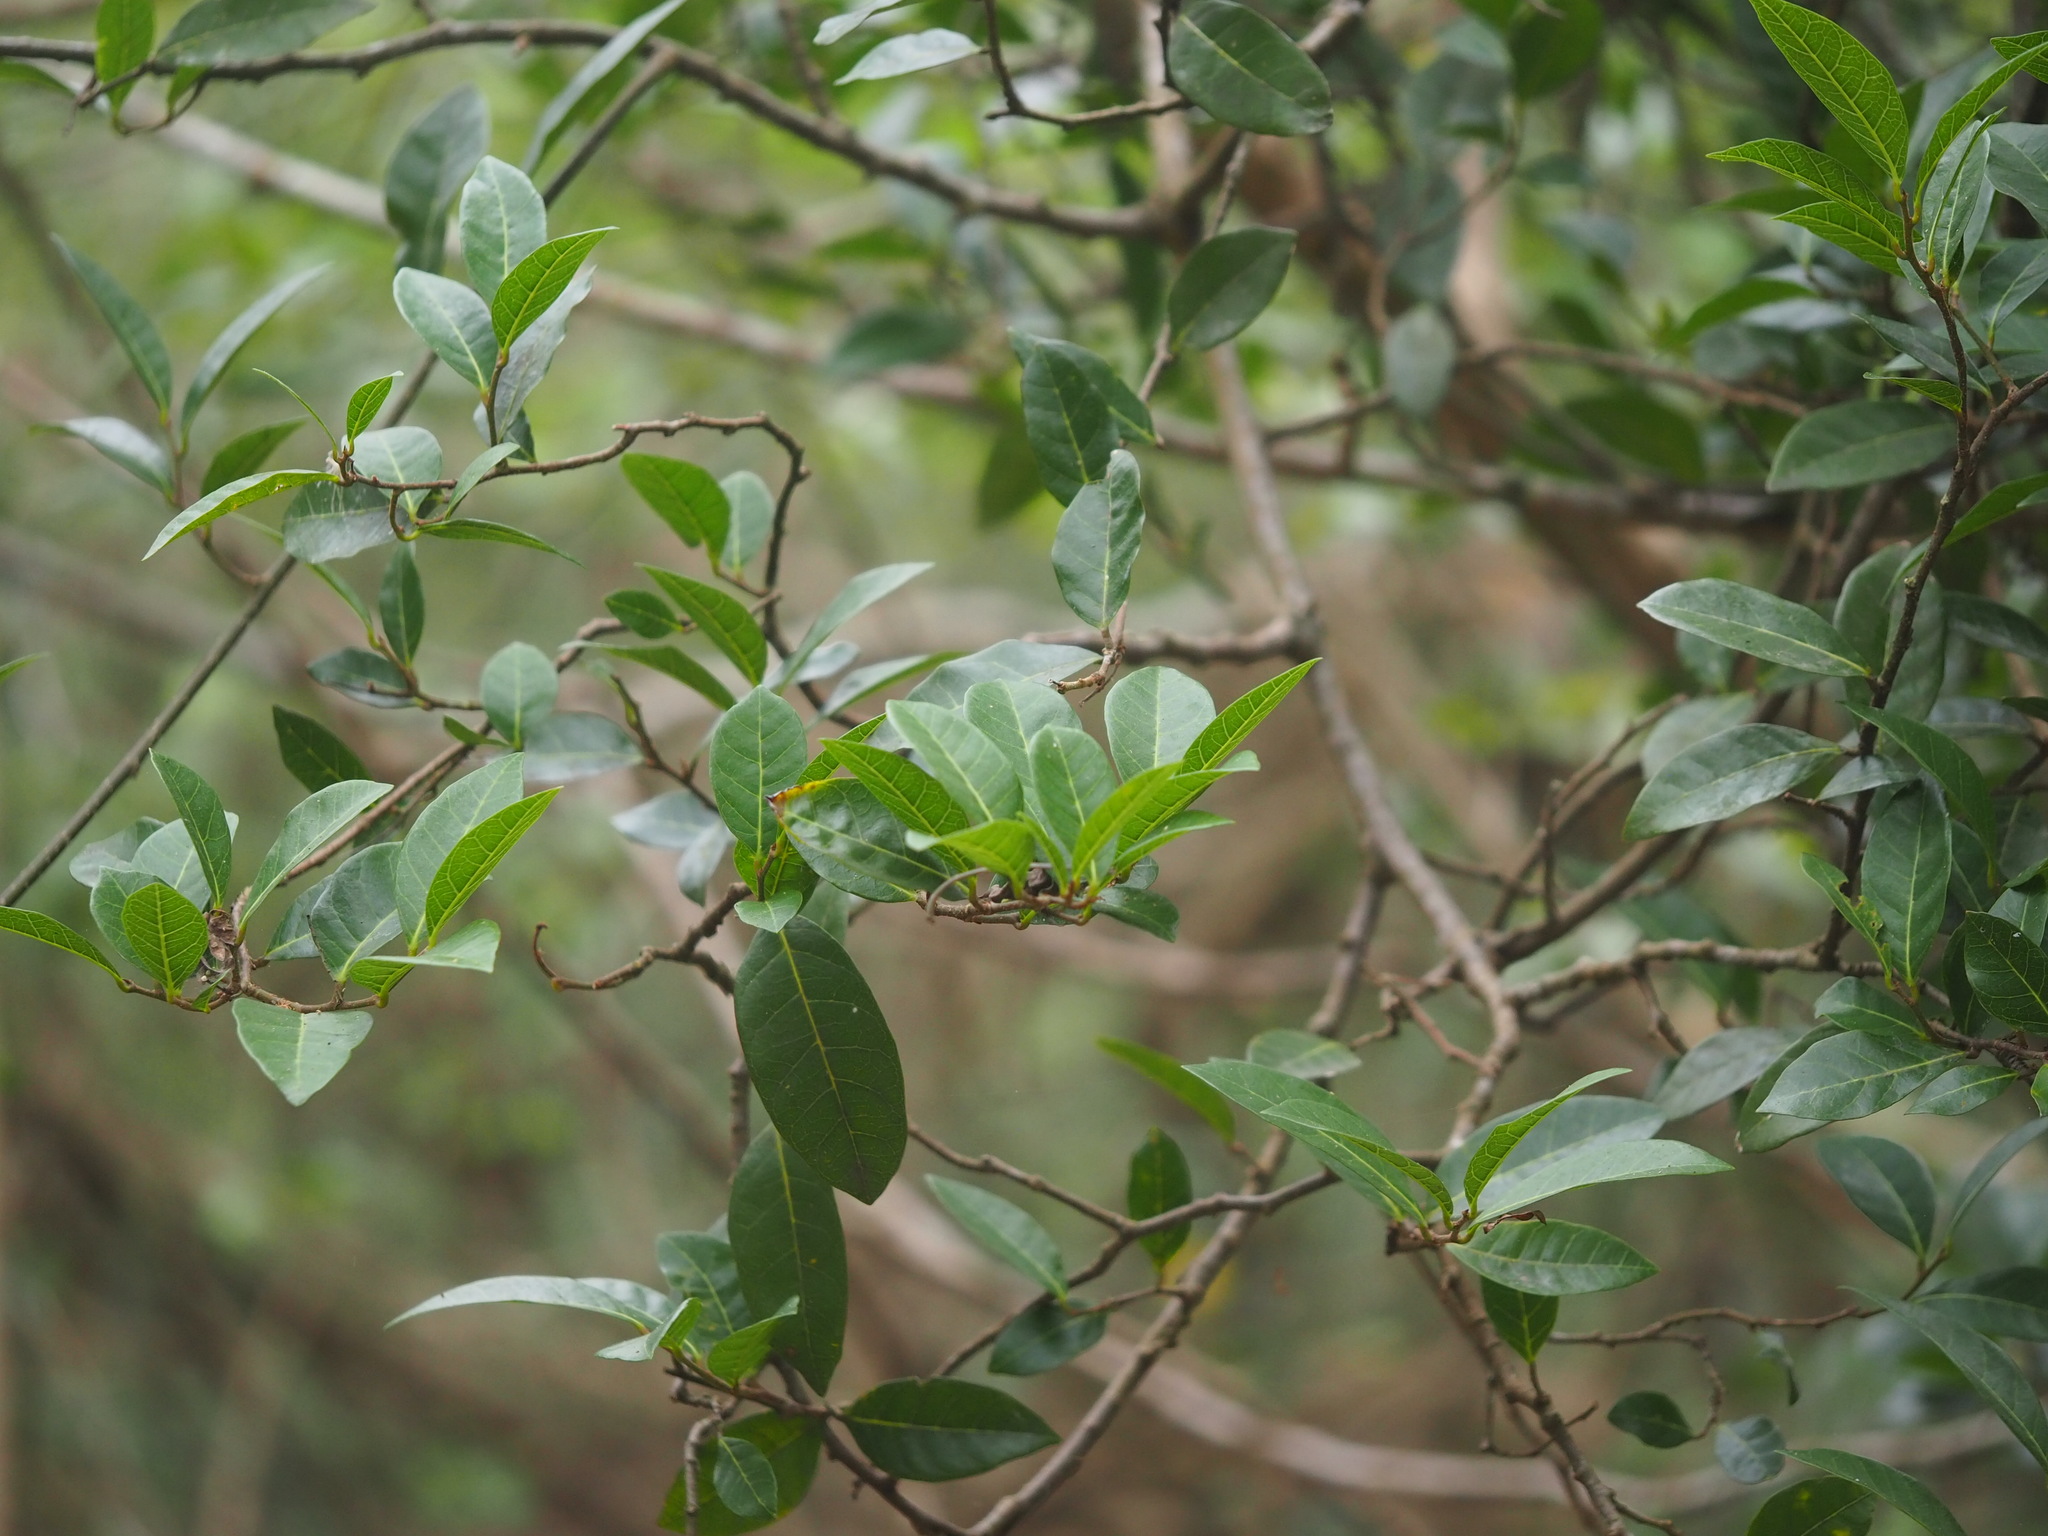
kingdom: Plantae
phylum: Tracheophyta
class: Magnoliopsida
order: Rosales
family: Moraceae
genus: Malaisia
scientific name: Malaisia scandens
